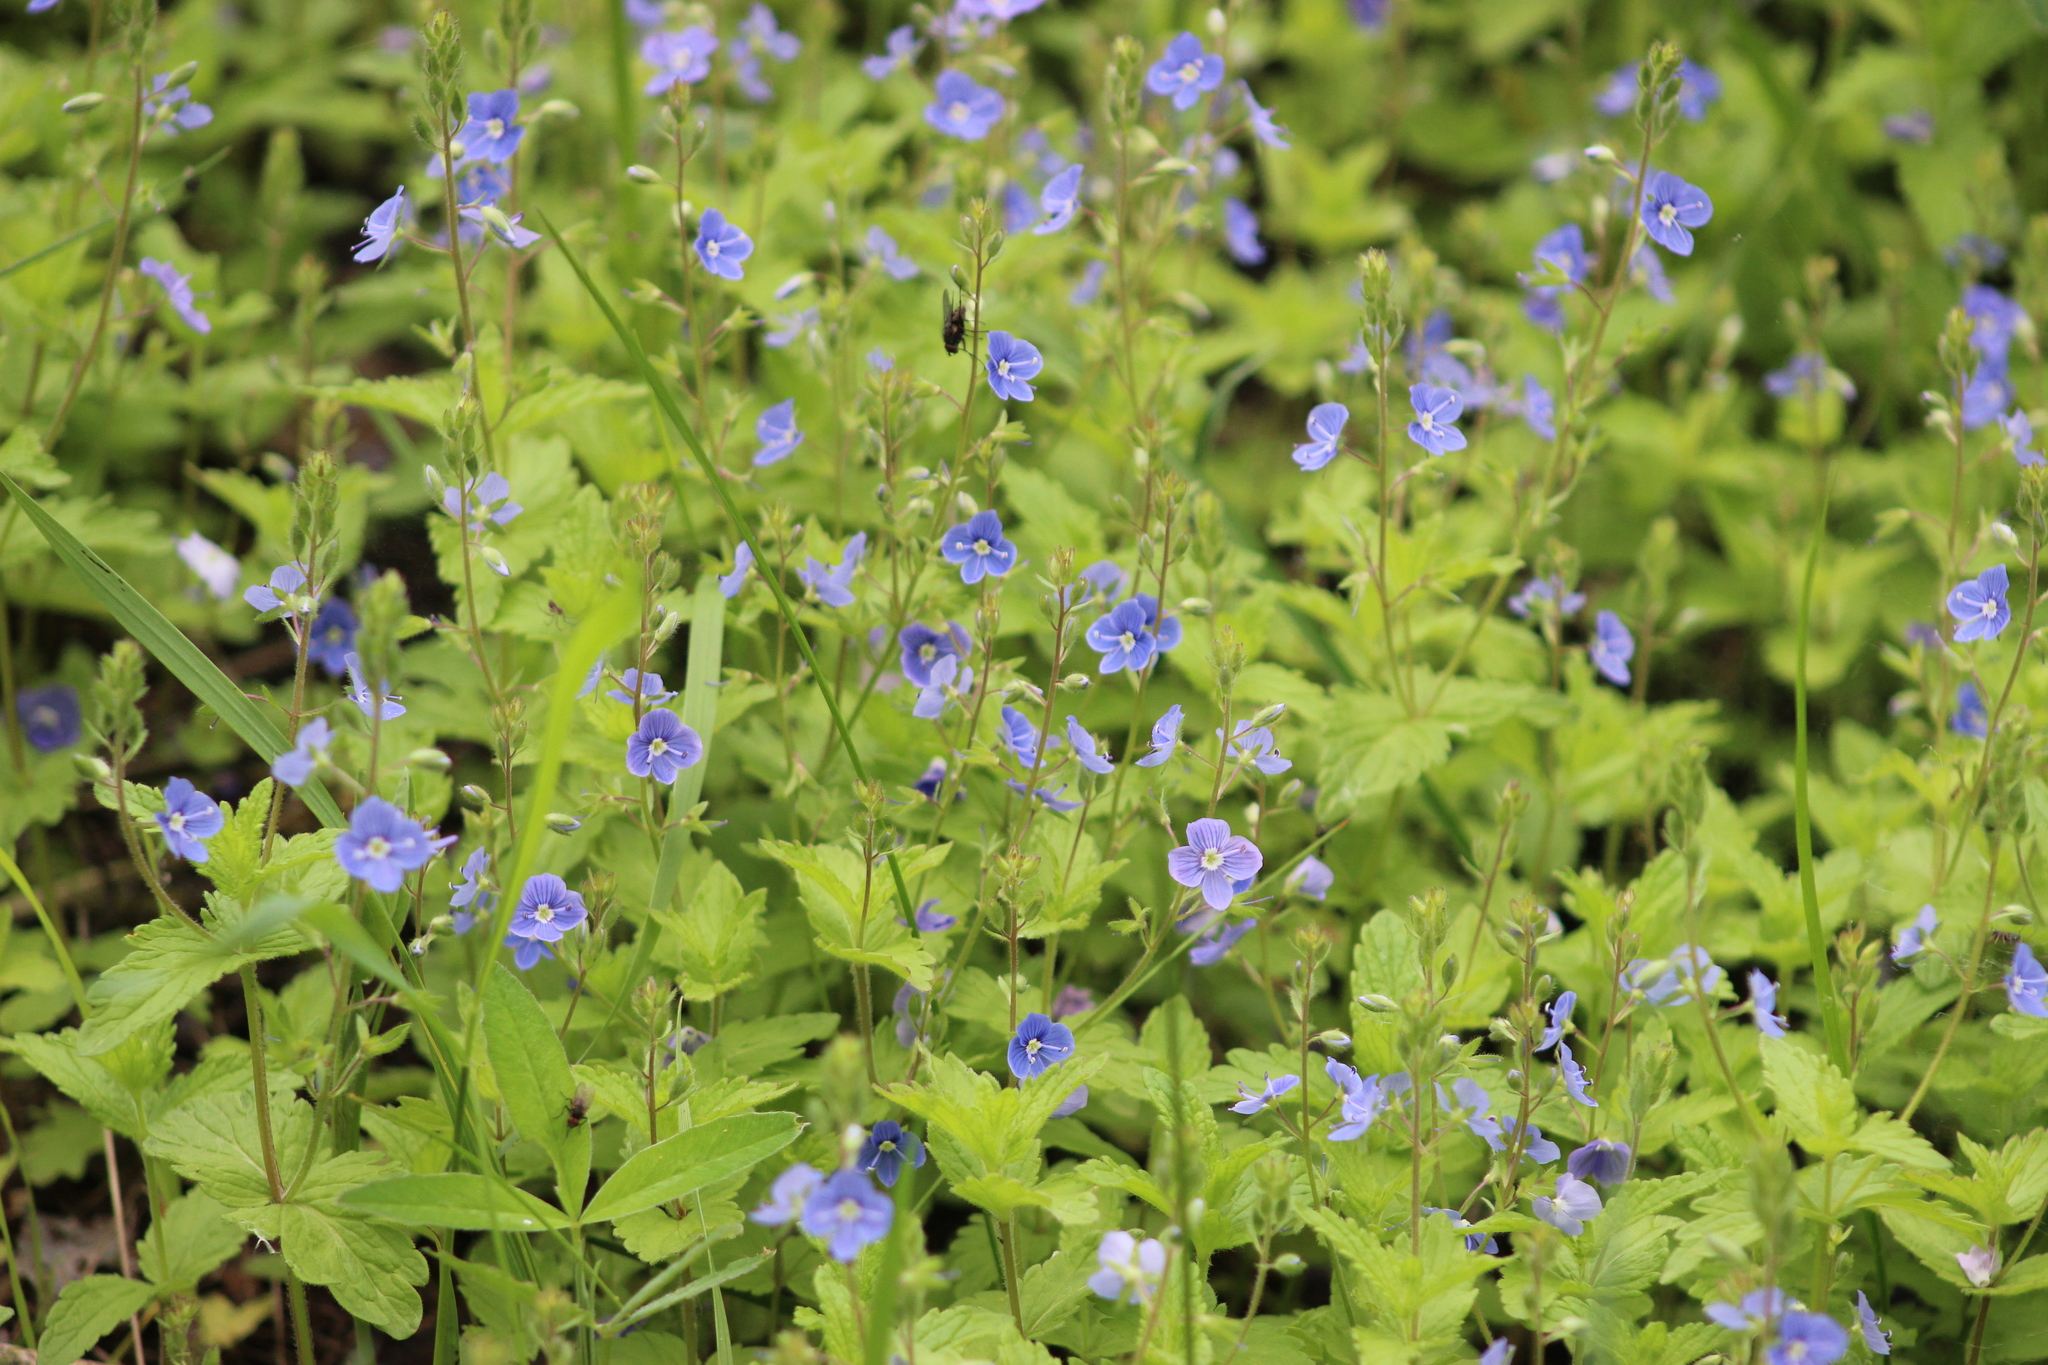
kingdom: Plantae
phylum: Tracheophyta
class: Magnoliopsida
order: Lamiales
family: Plantaginaceae
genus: Veronica
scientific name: Veronica chamaedrys
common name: Germander speedwell
